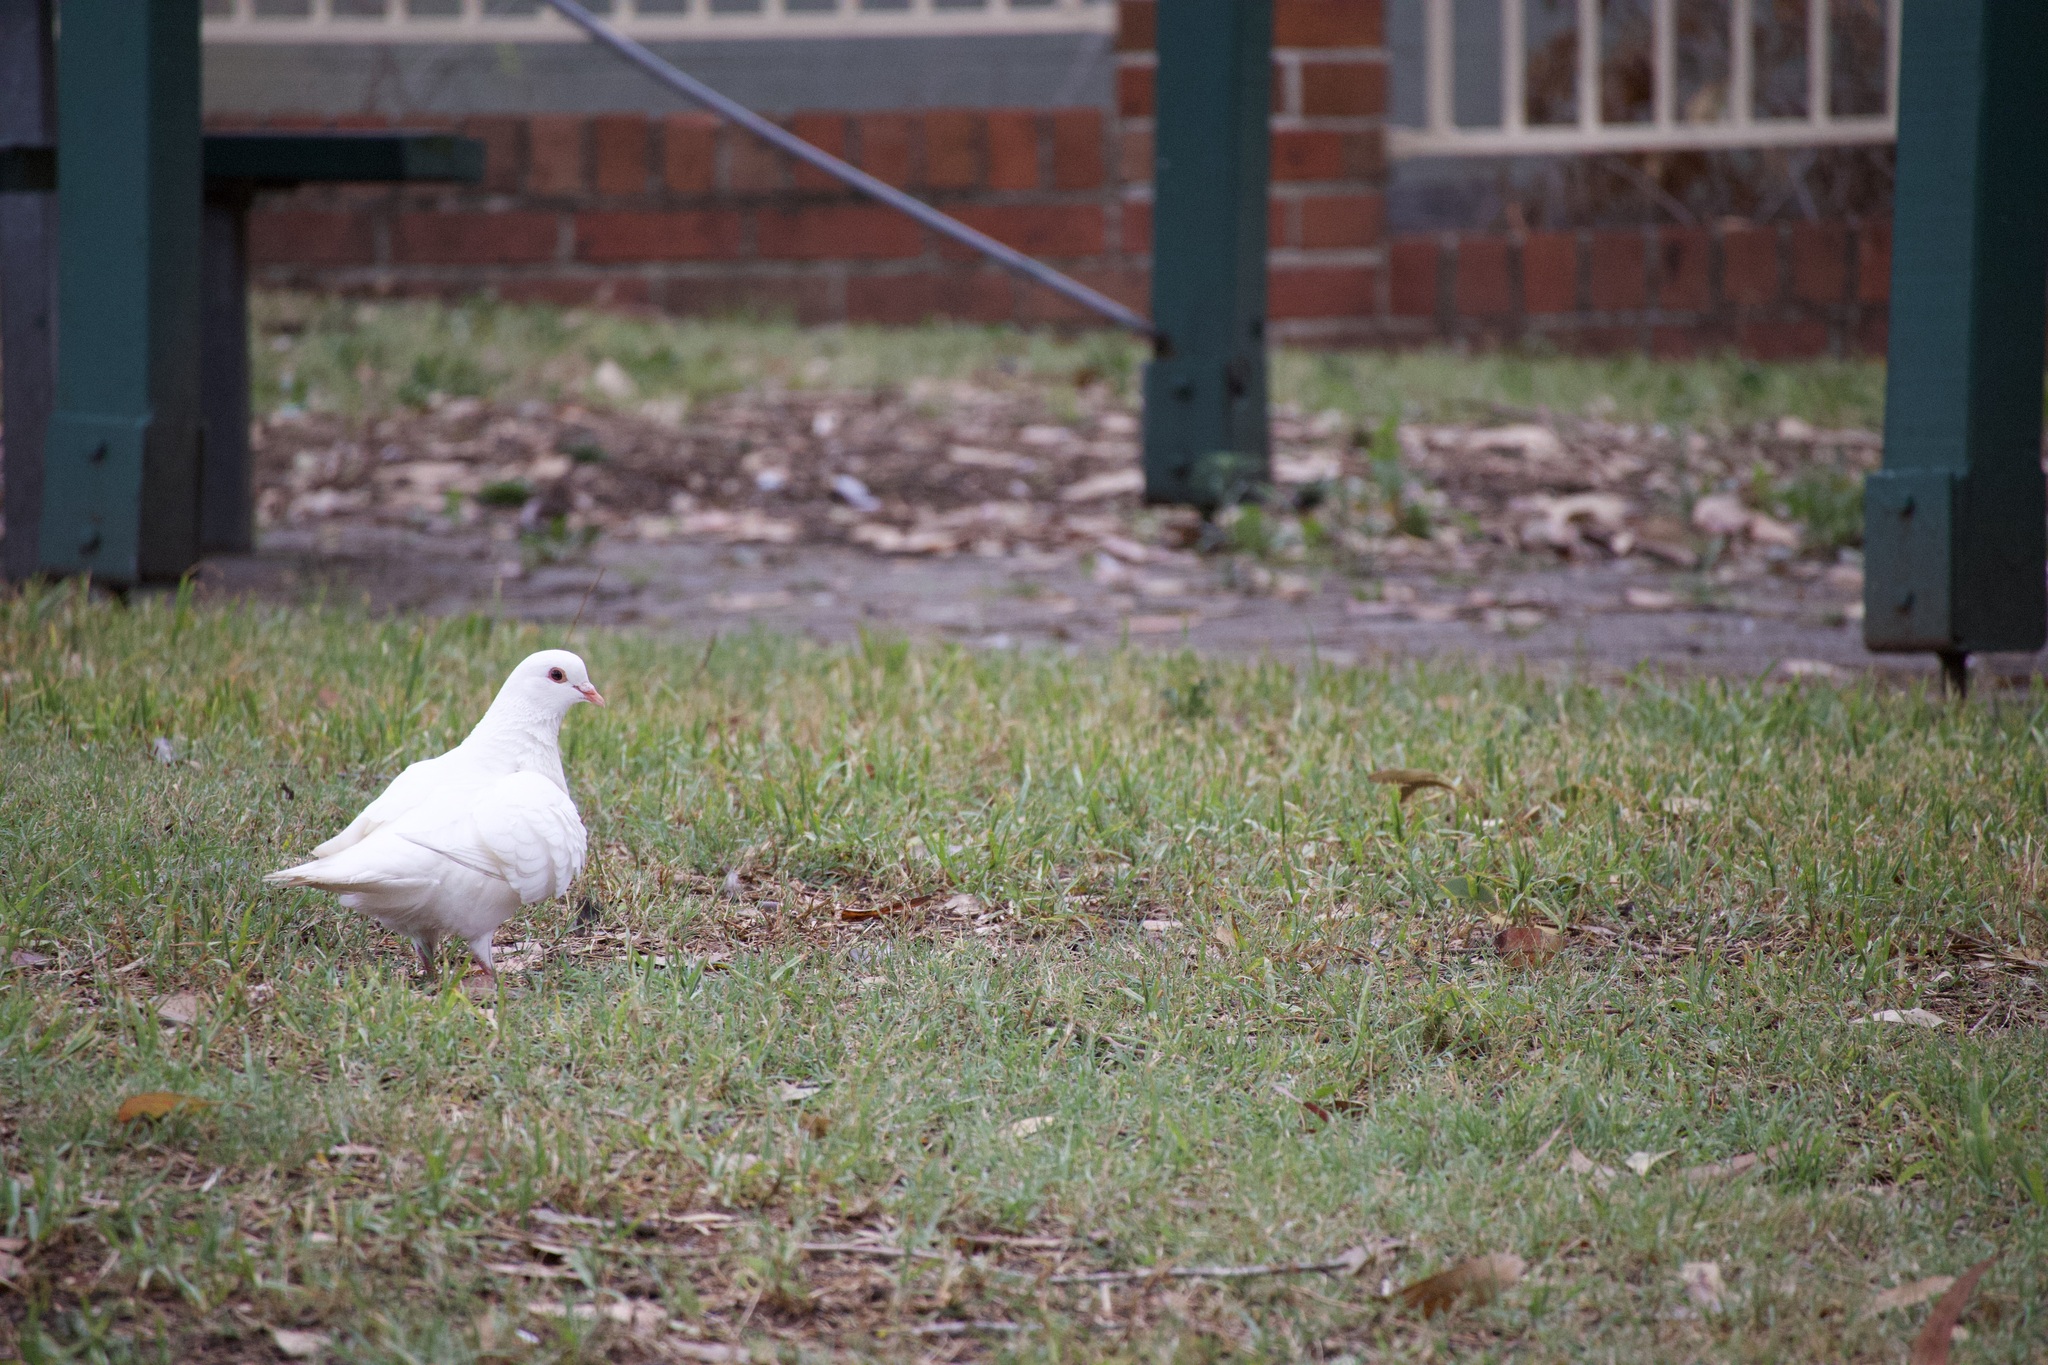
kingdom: Animalia
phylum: Chordata
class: Aves
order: Columbiformes
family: Columbidae
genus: Columba
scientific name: Columba livia
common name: Rock pigeon
